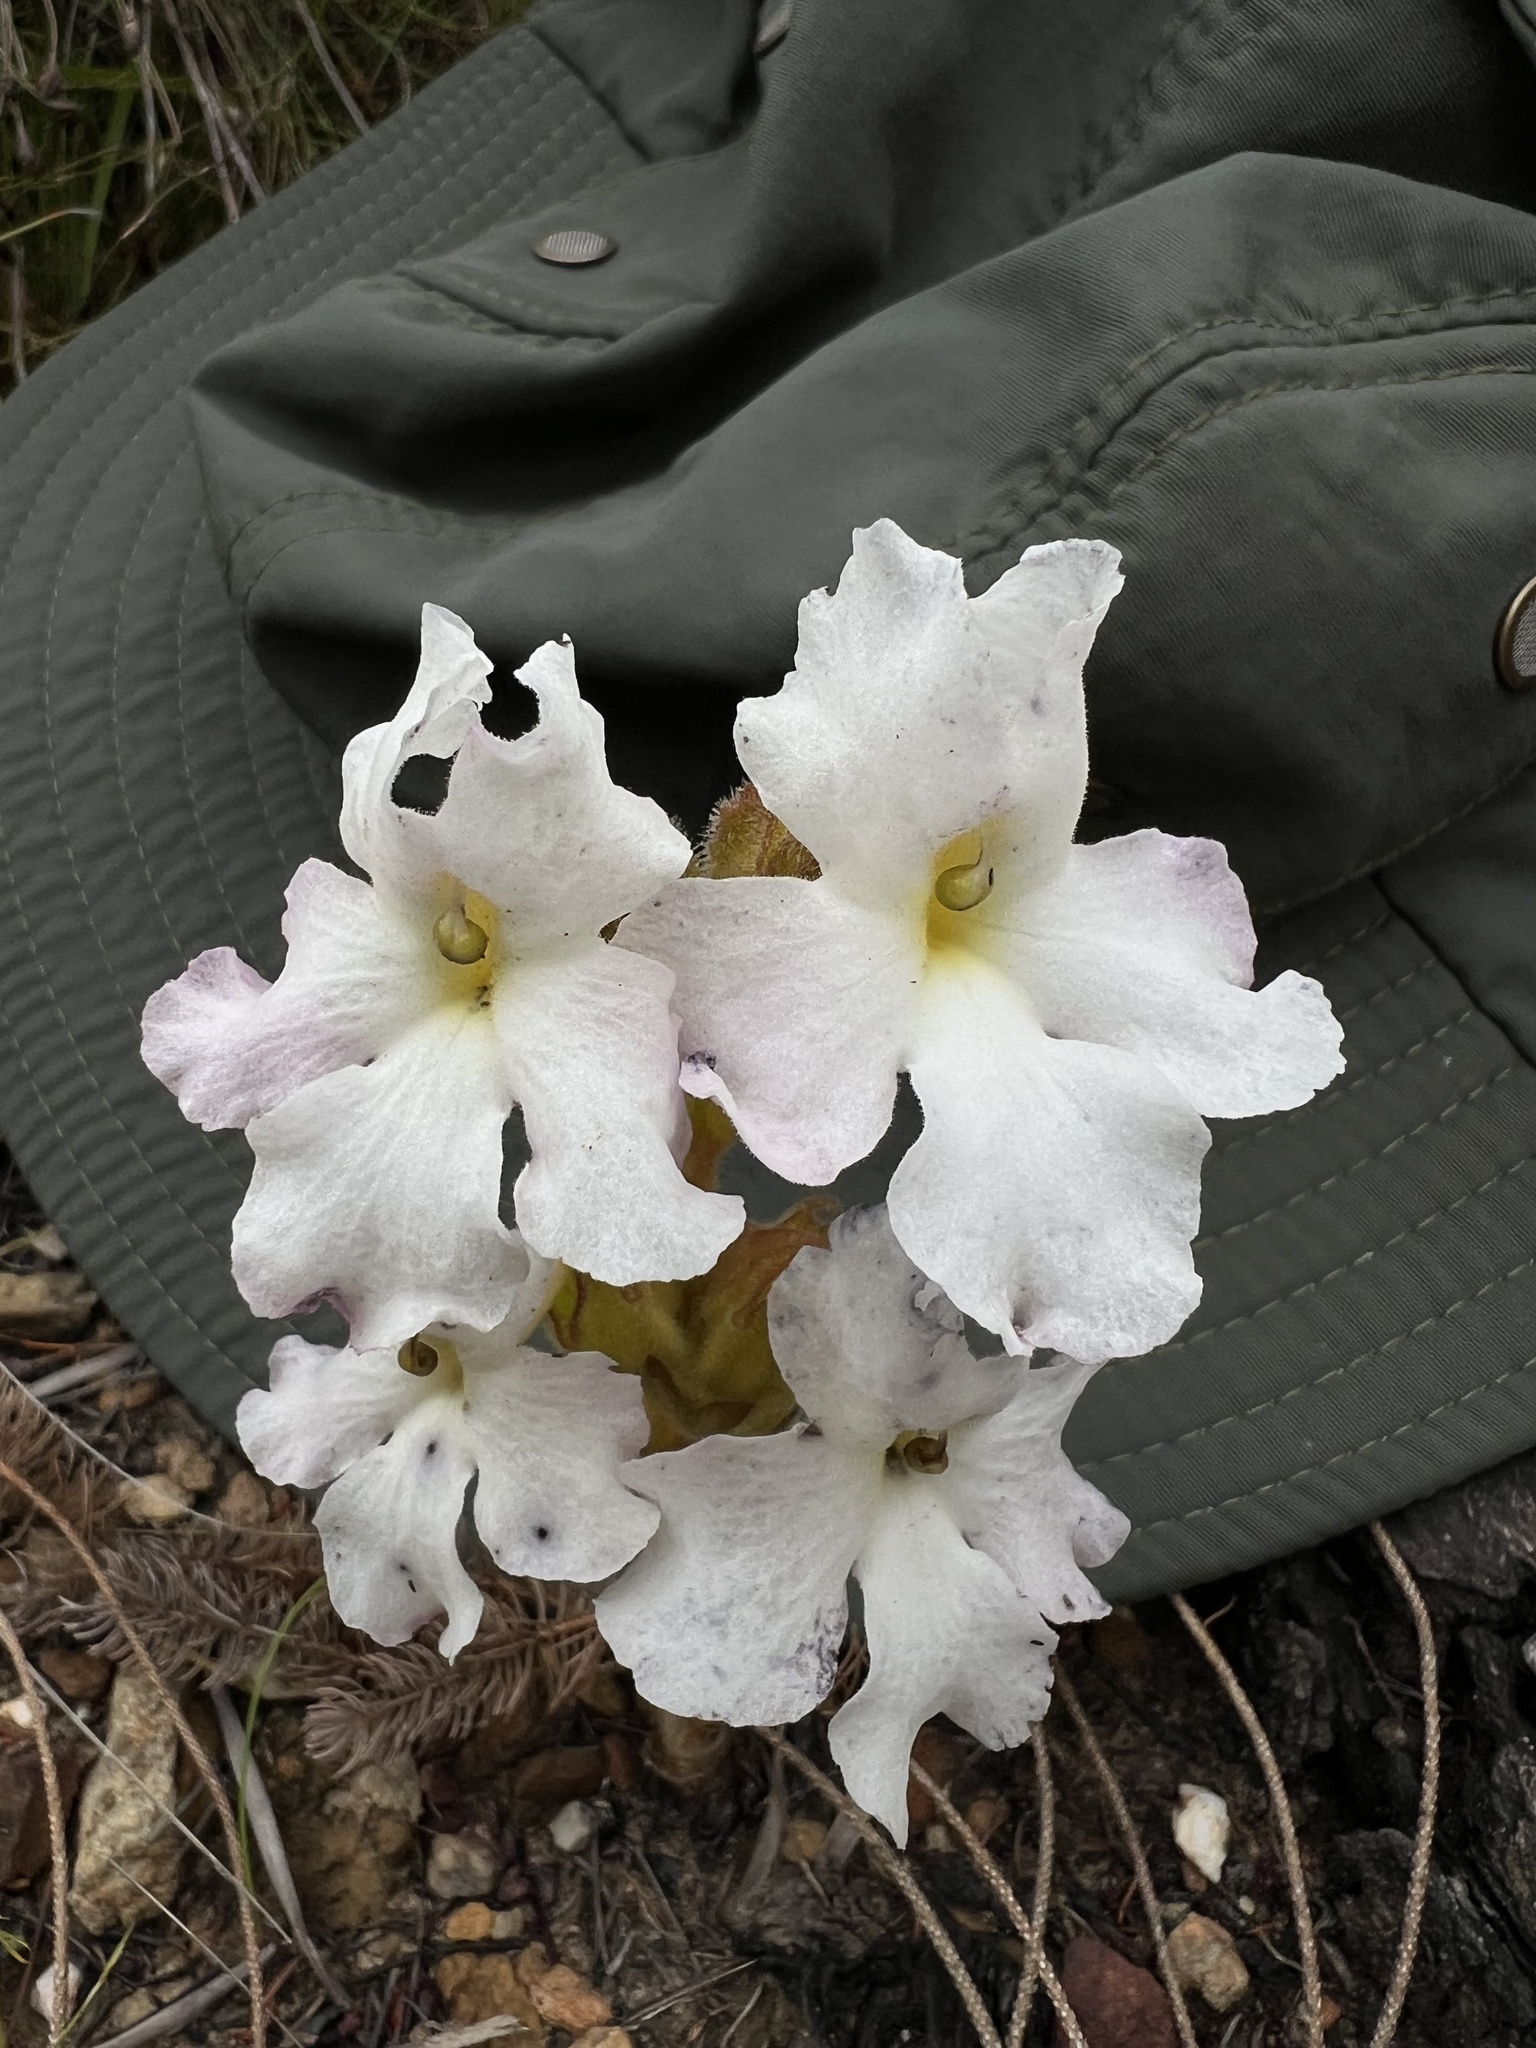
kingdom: Plantae
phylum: Tracheophyta
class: Magnoliopsida
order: Lamiales
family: Orobanchaceae
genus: Harveya
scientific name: Harveya capensis
